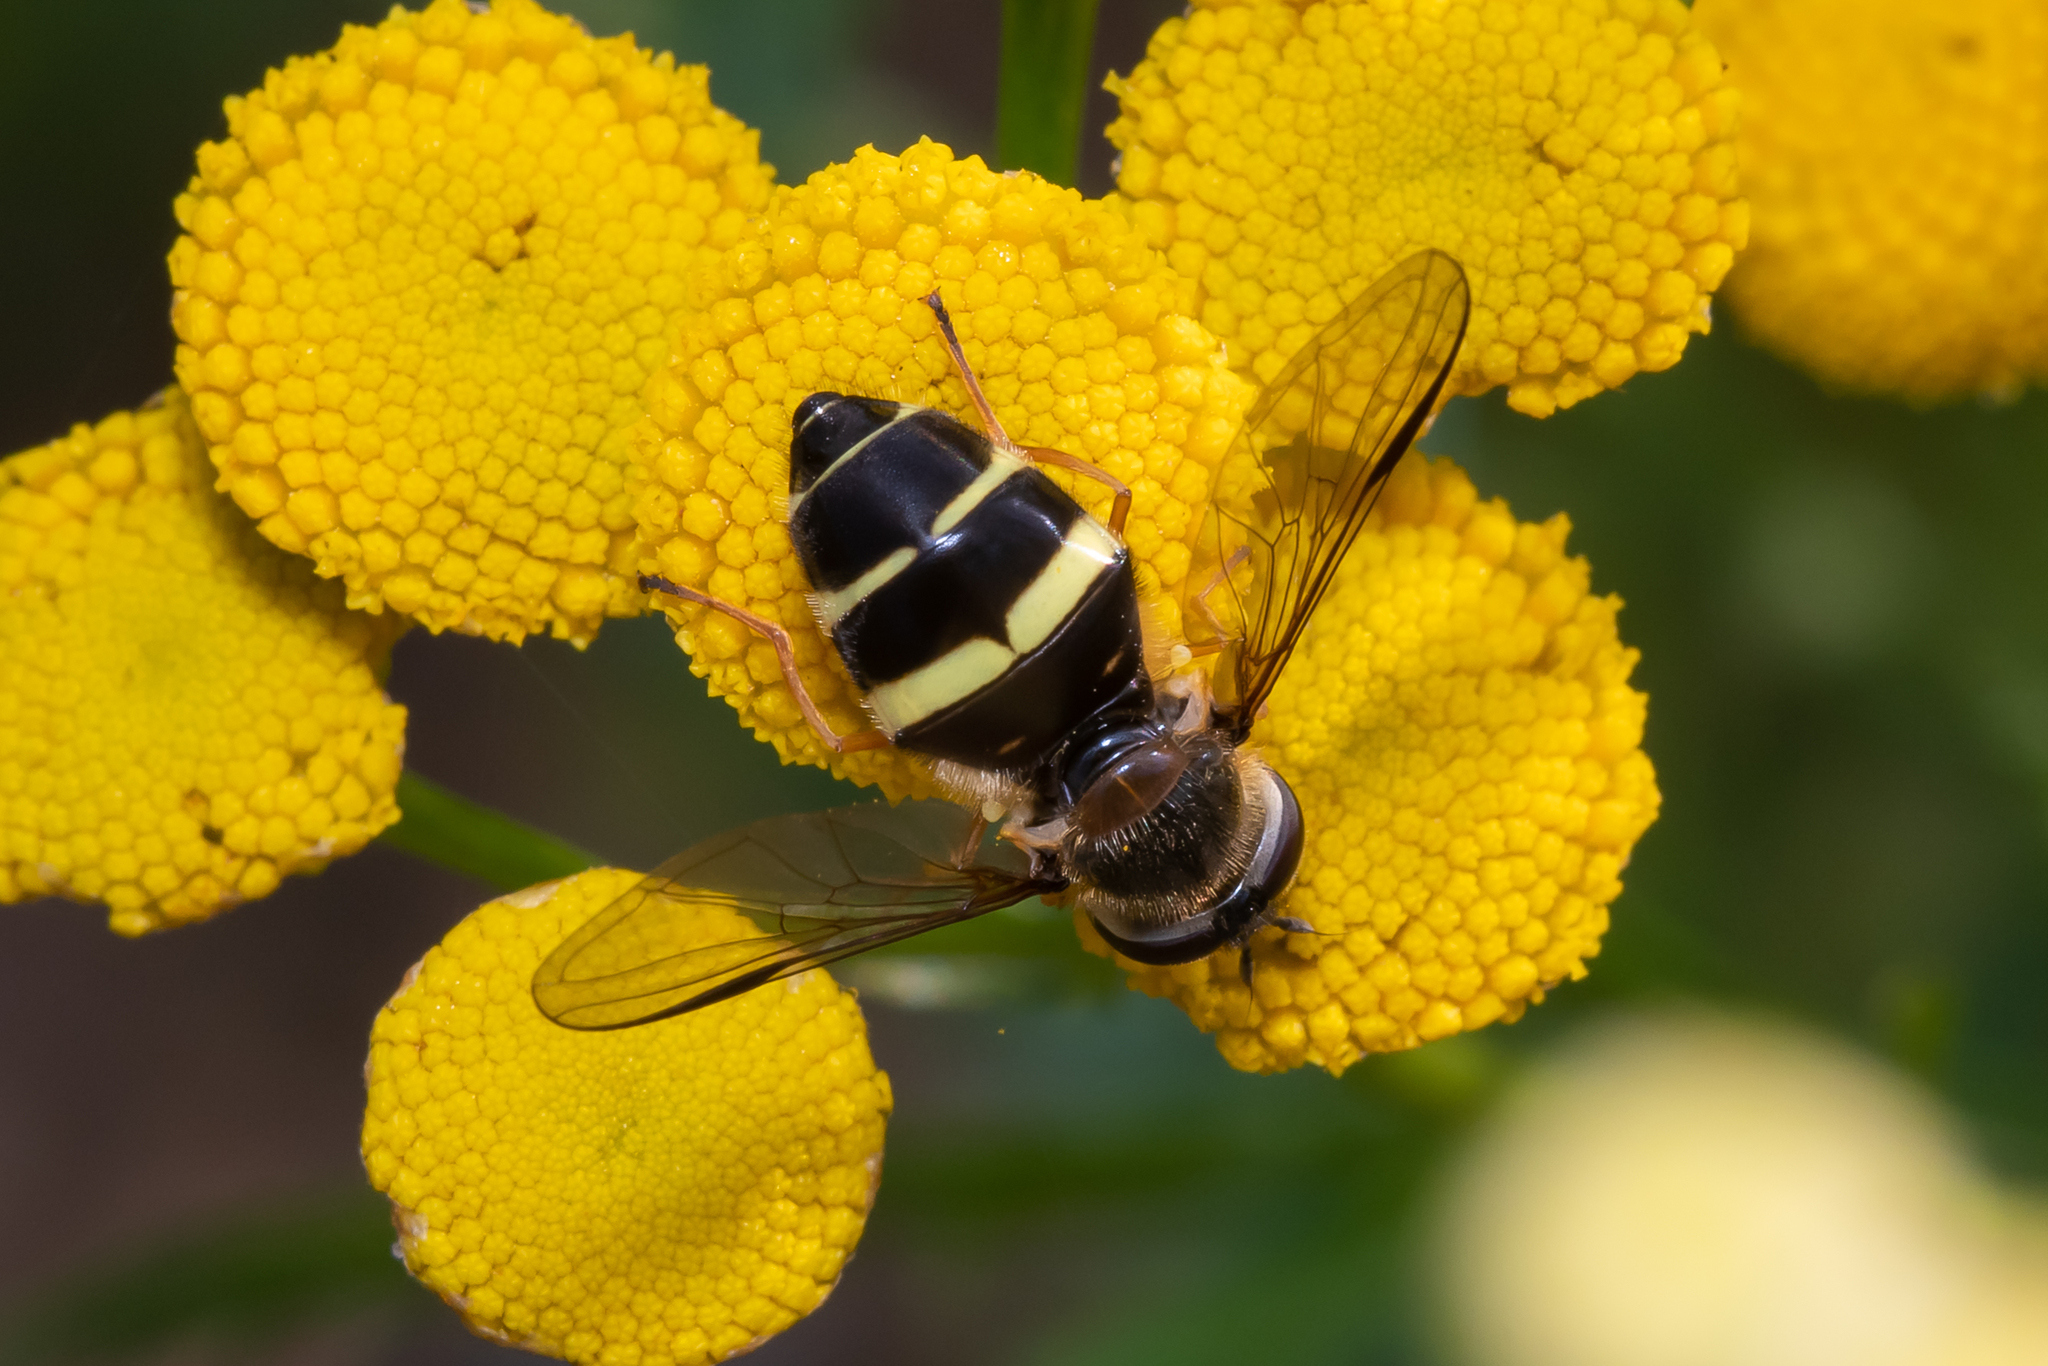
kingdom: Animalia
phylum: Arthropoda
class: Insecta
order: Diptera
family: Syrphidae
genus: Dasysyrphus
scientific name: Dasysyrphus tricinctus
